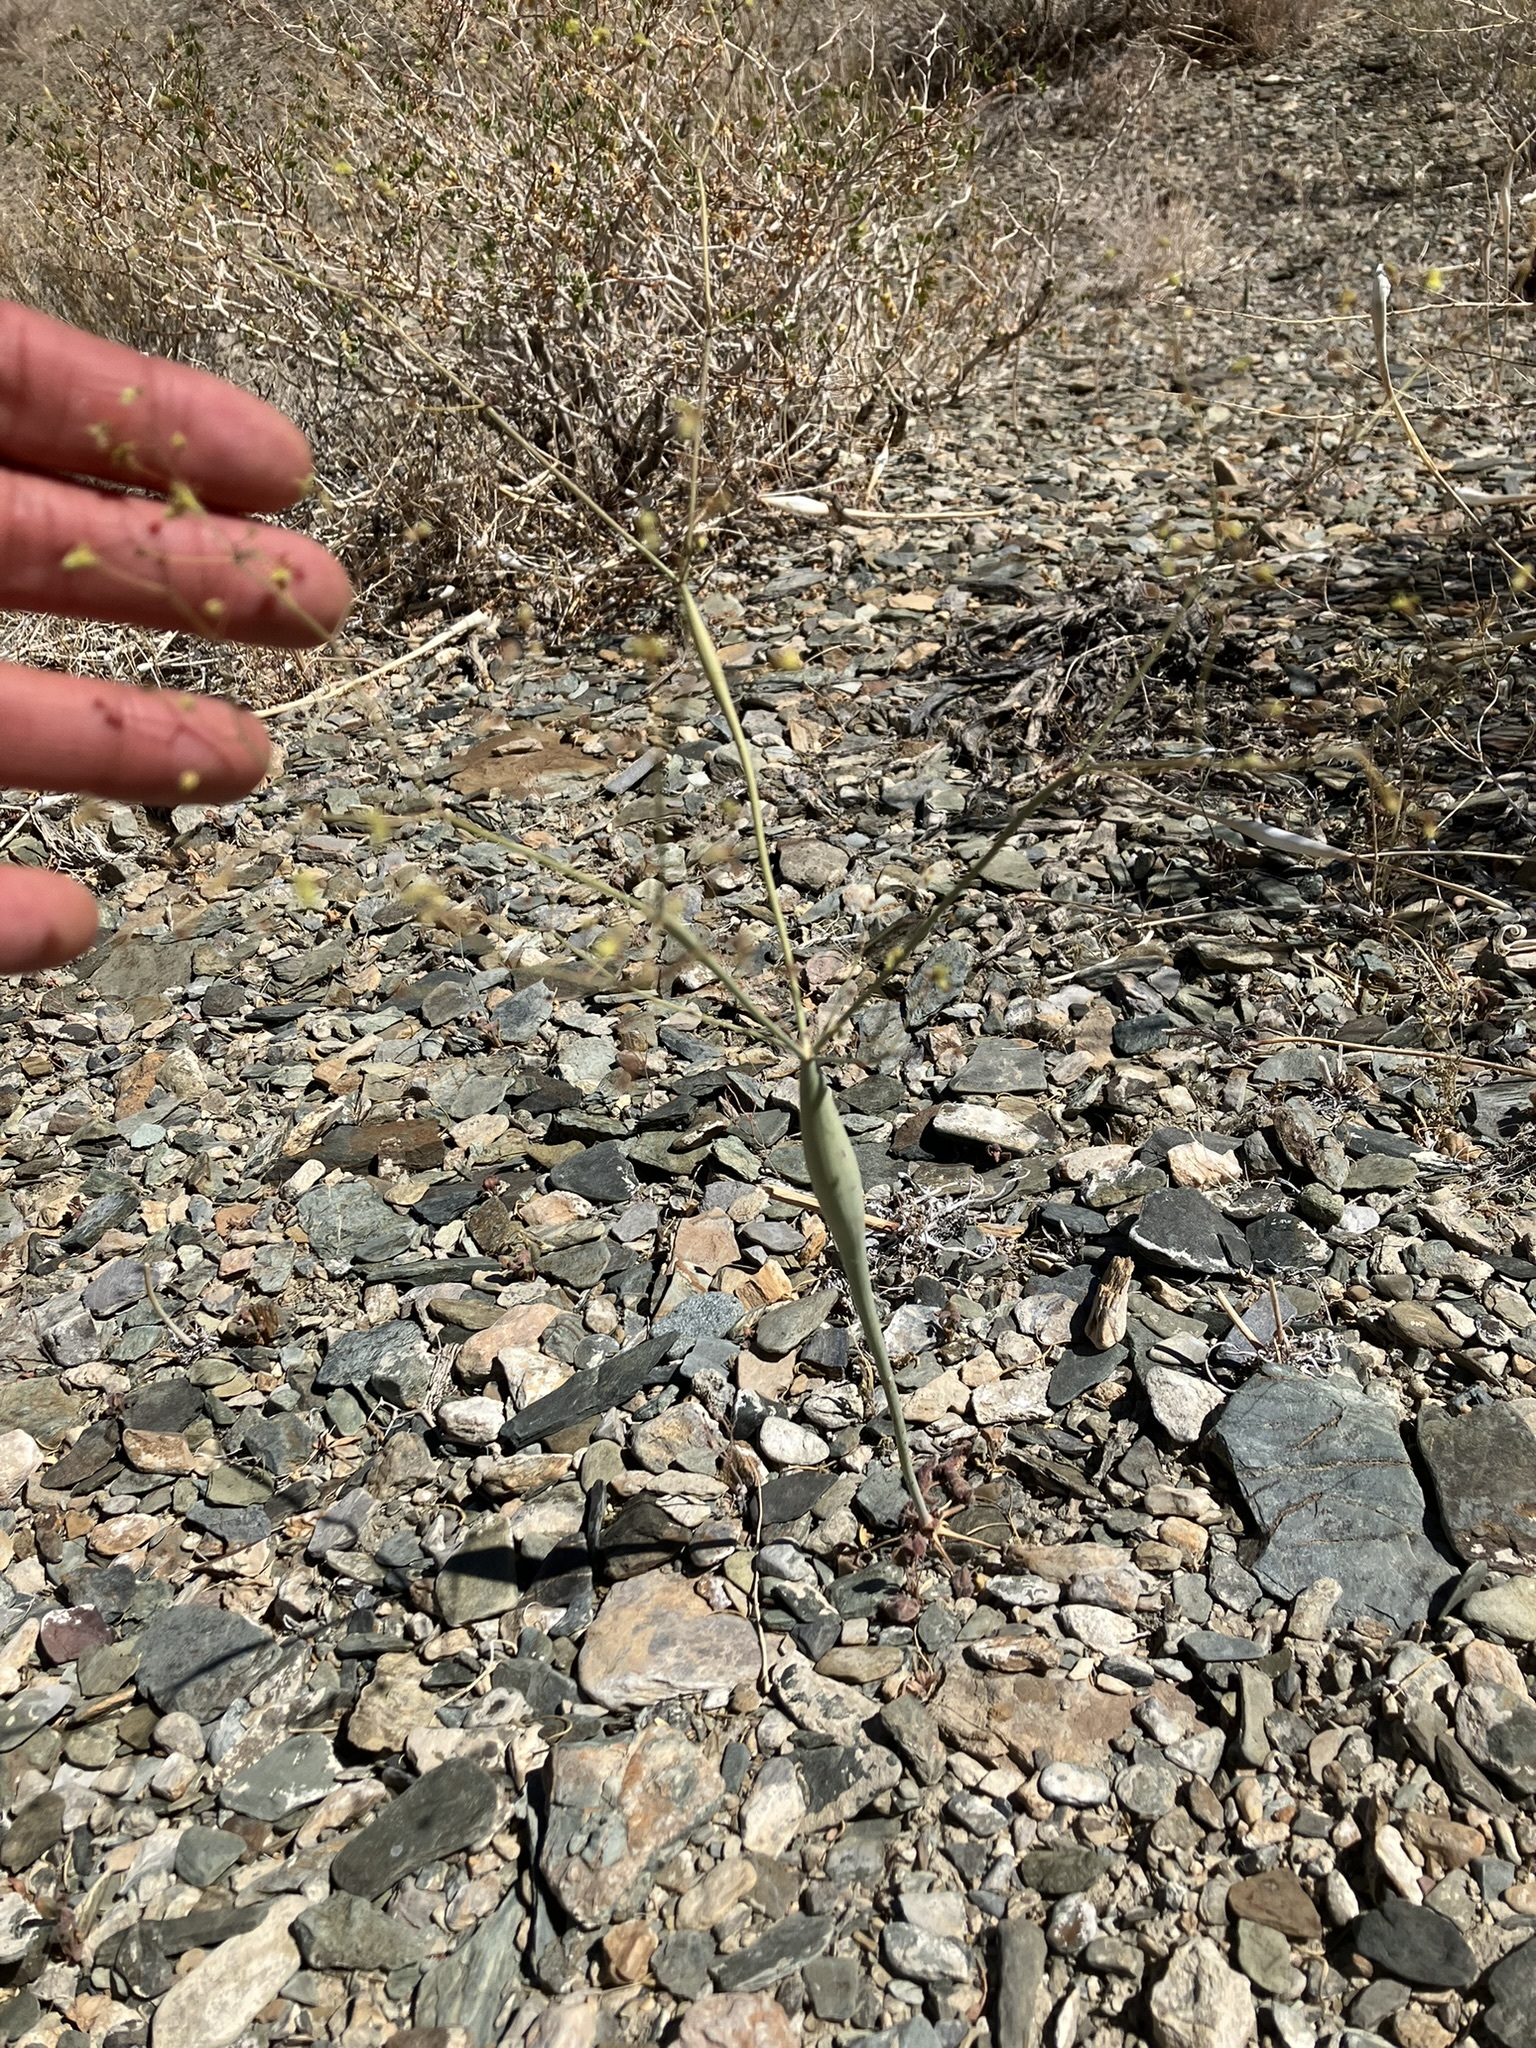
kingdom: Plantae
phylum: Tracheophyta
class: Magnoliopsida
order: Caryophyllales
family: Polygonaceae
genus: Eriogonum
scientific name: Eriogonum inflatum
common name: Desert trumpet
